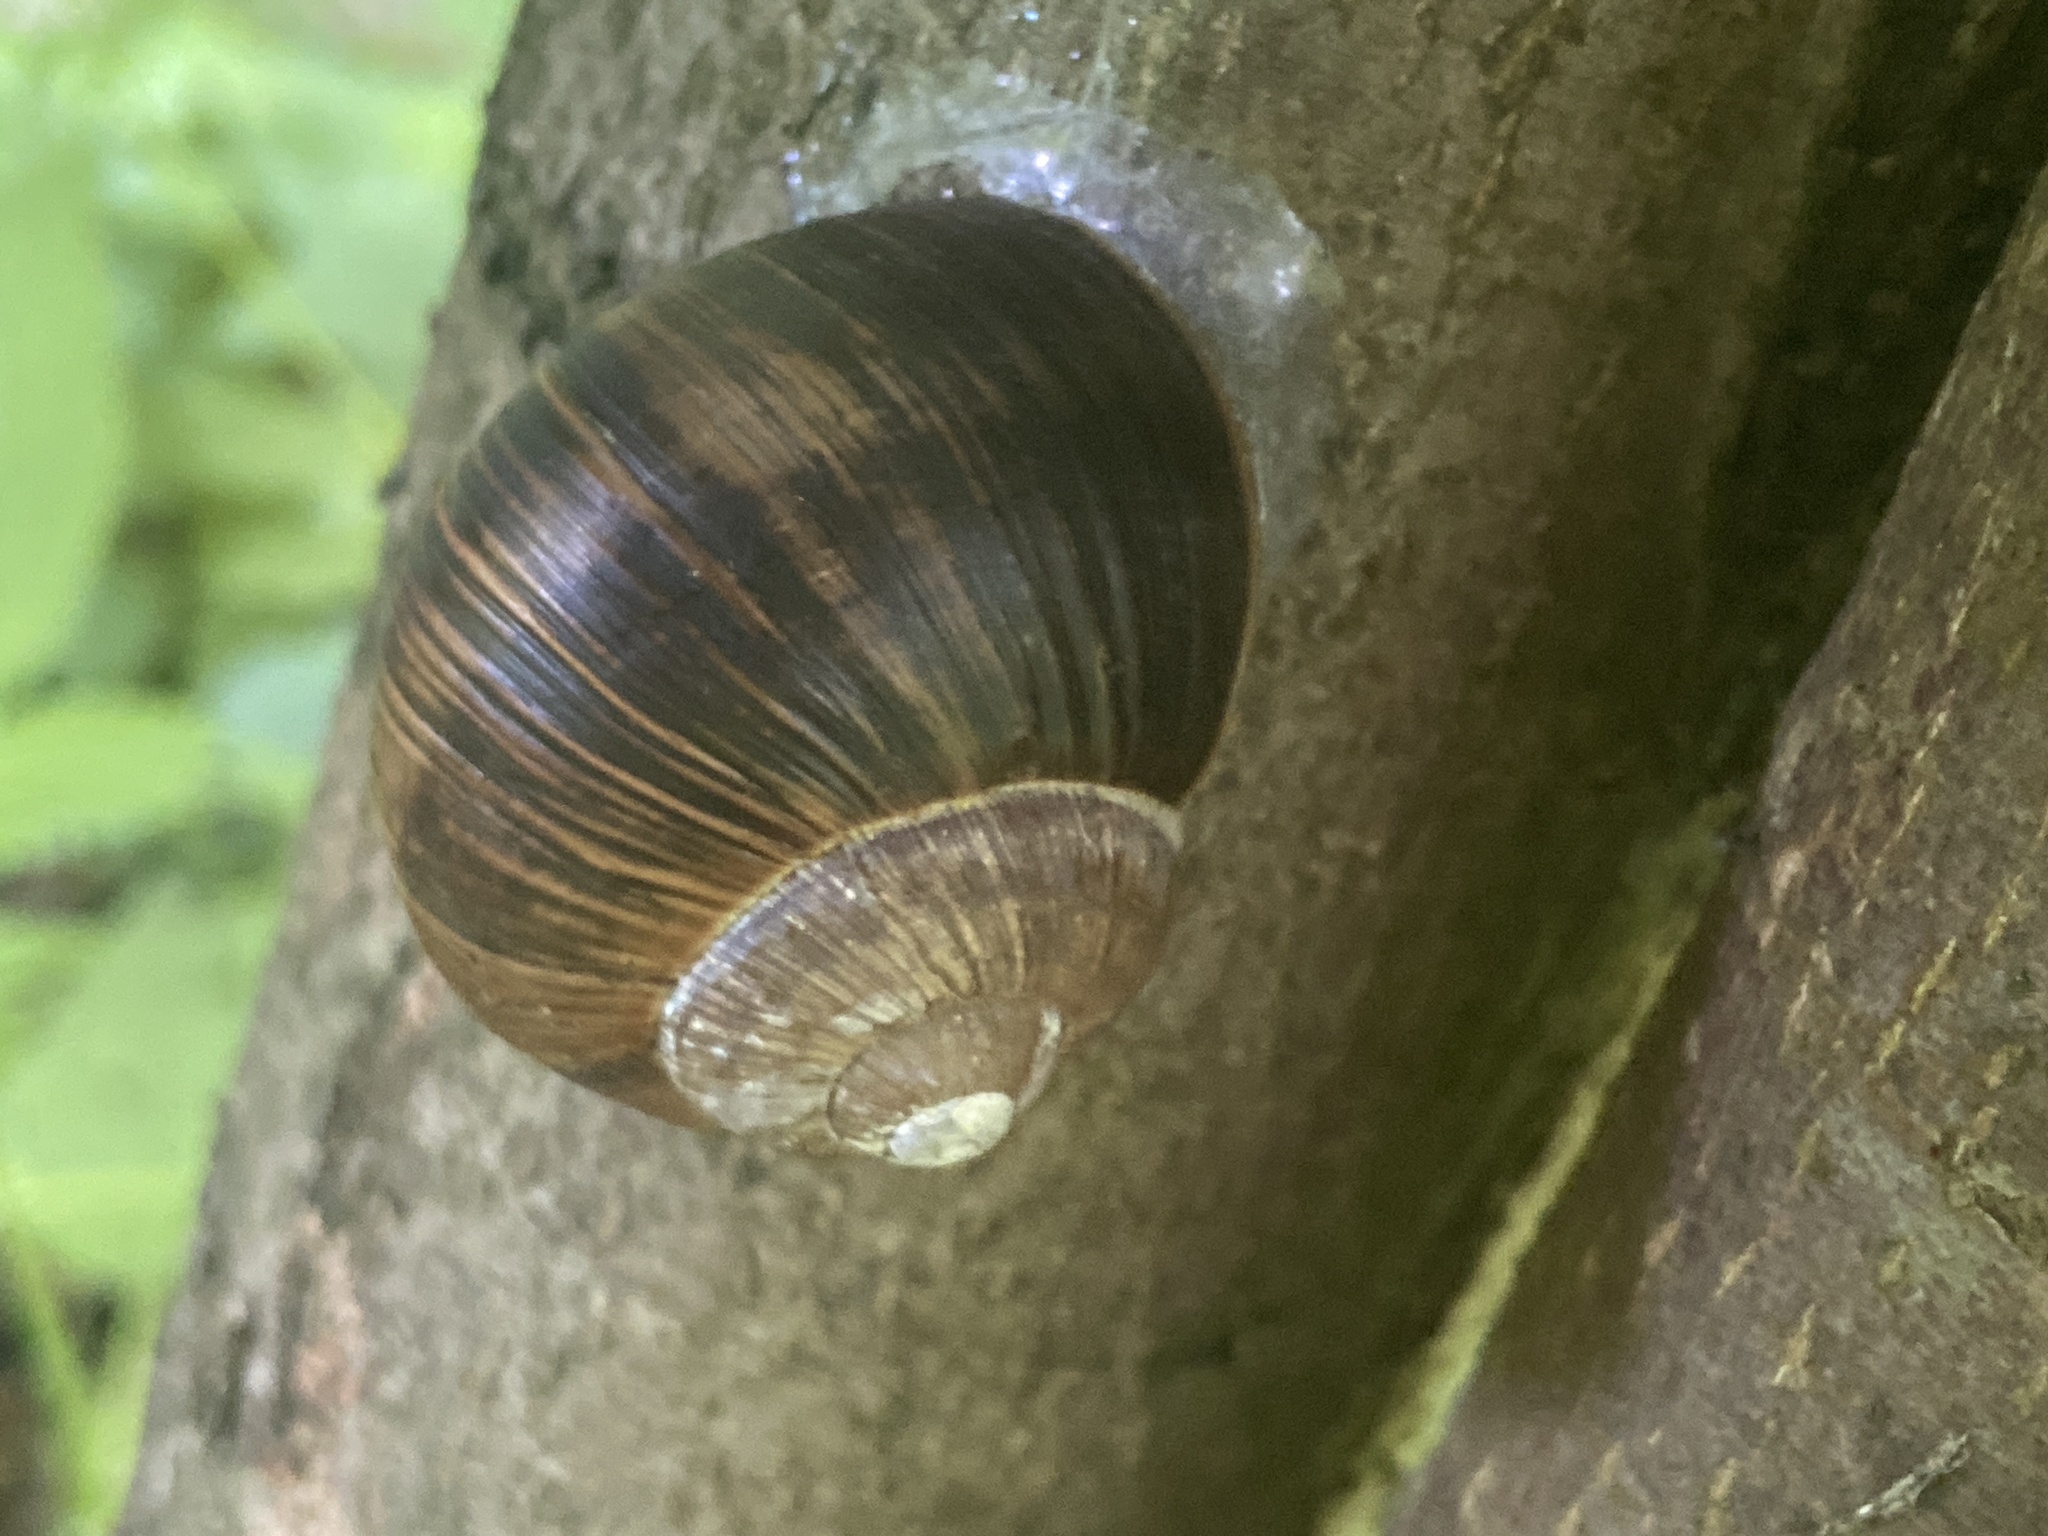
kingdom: Animalia
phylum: Mollusca
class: Gastropoda
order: Stylommatophora
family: Helicidae
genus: Helix
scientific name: Helix pomatia
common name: Roman snail
